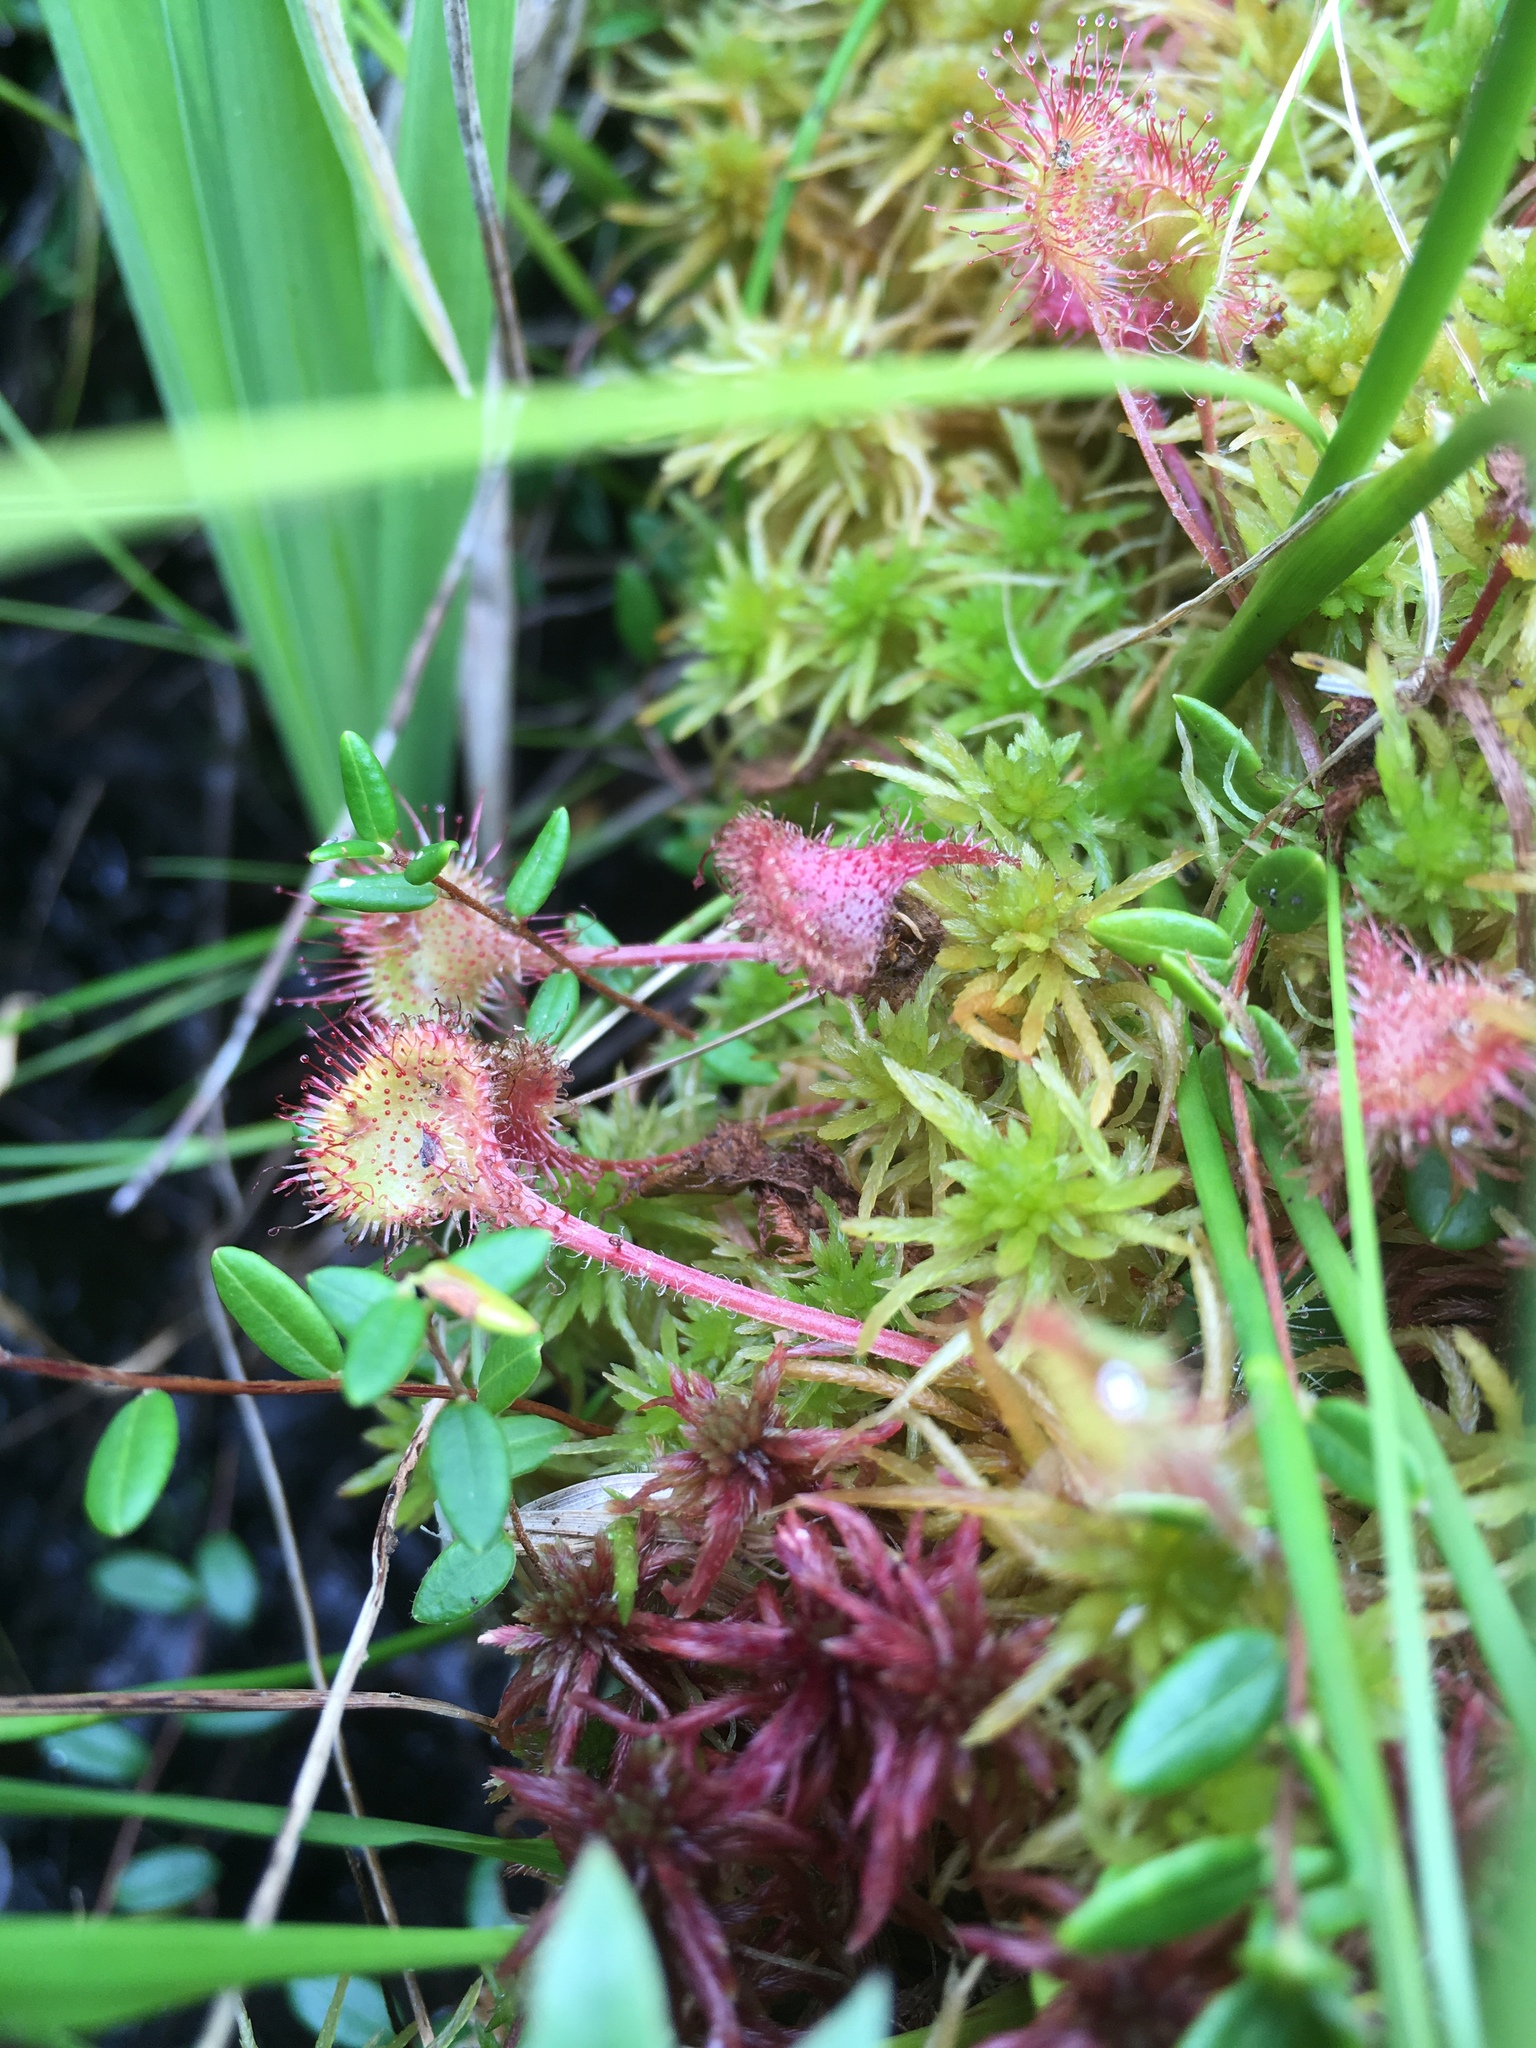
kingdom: Plantae
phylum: Tracheophyta
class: Magnoliopsida
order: Caryophyllales
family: Droseraceae
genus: Drosera
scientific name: Drosera rotundifolia
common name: Round-leaved sundew
